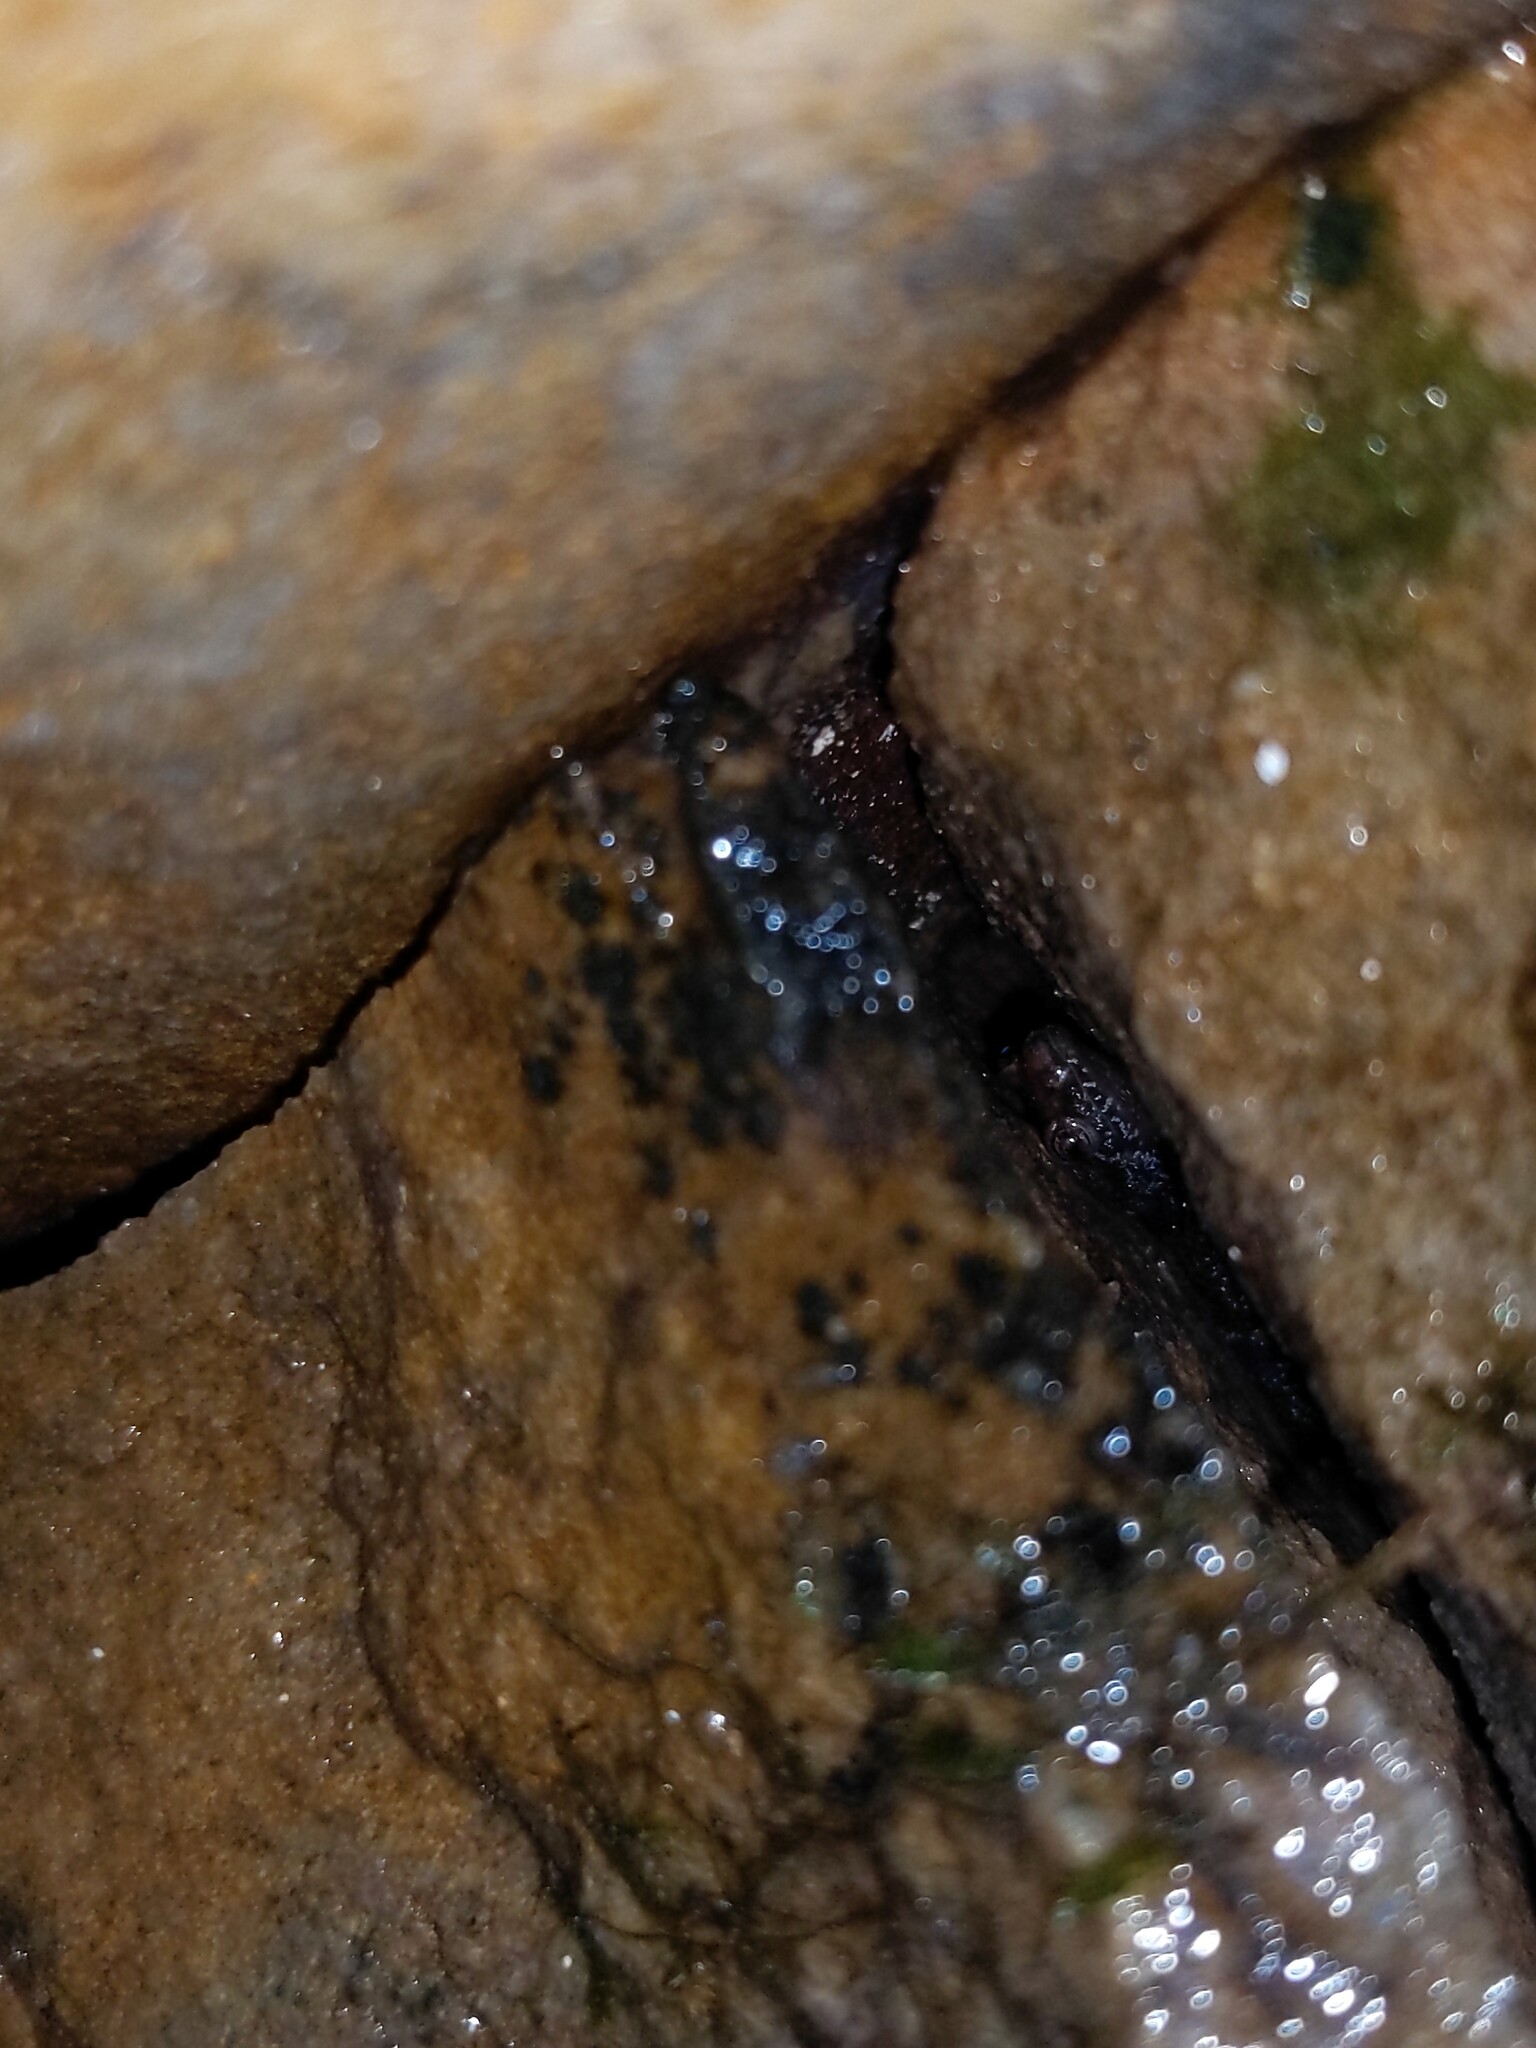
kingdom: Animalia
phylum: Chordata
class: Amphibia
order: Caudata
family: Plethodontidae
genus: Desmognathus
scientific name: Desmognathus ochrophaeus
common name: Allegheny mountain dusky salamander
